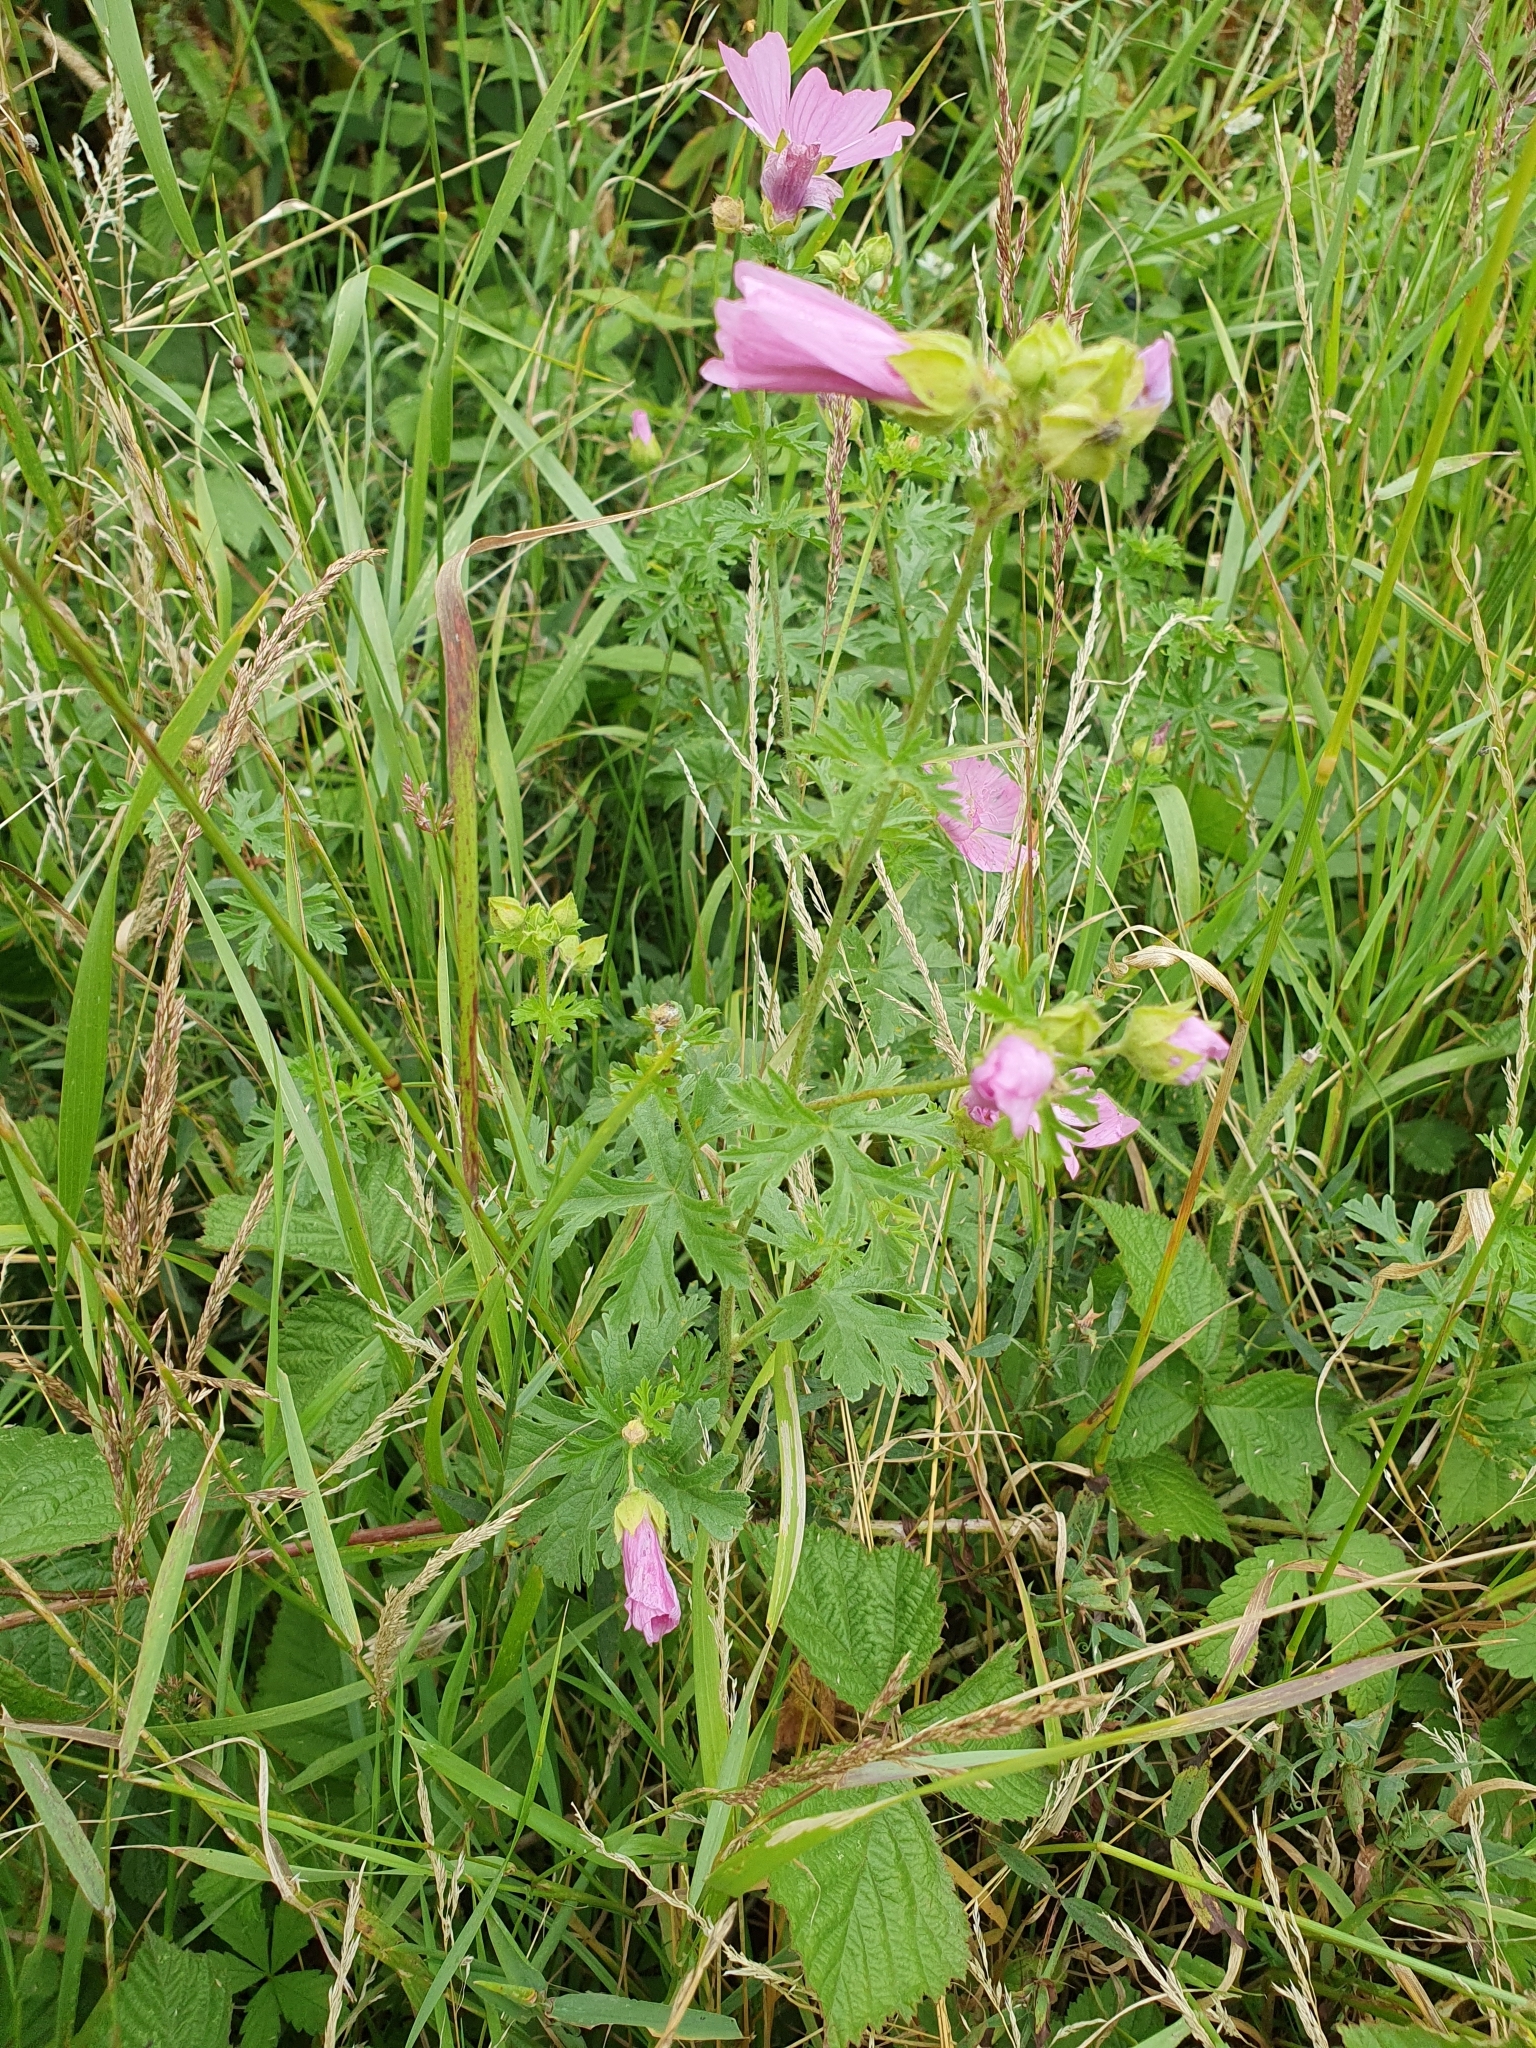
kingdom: Plantae
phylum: Tracheophyta
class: Magnoliopsida
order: Malvales
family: Malvaceae
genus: Malva
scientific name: Malva moschata
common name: Musk mallow
